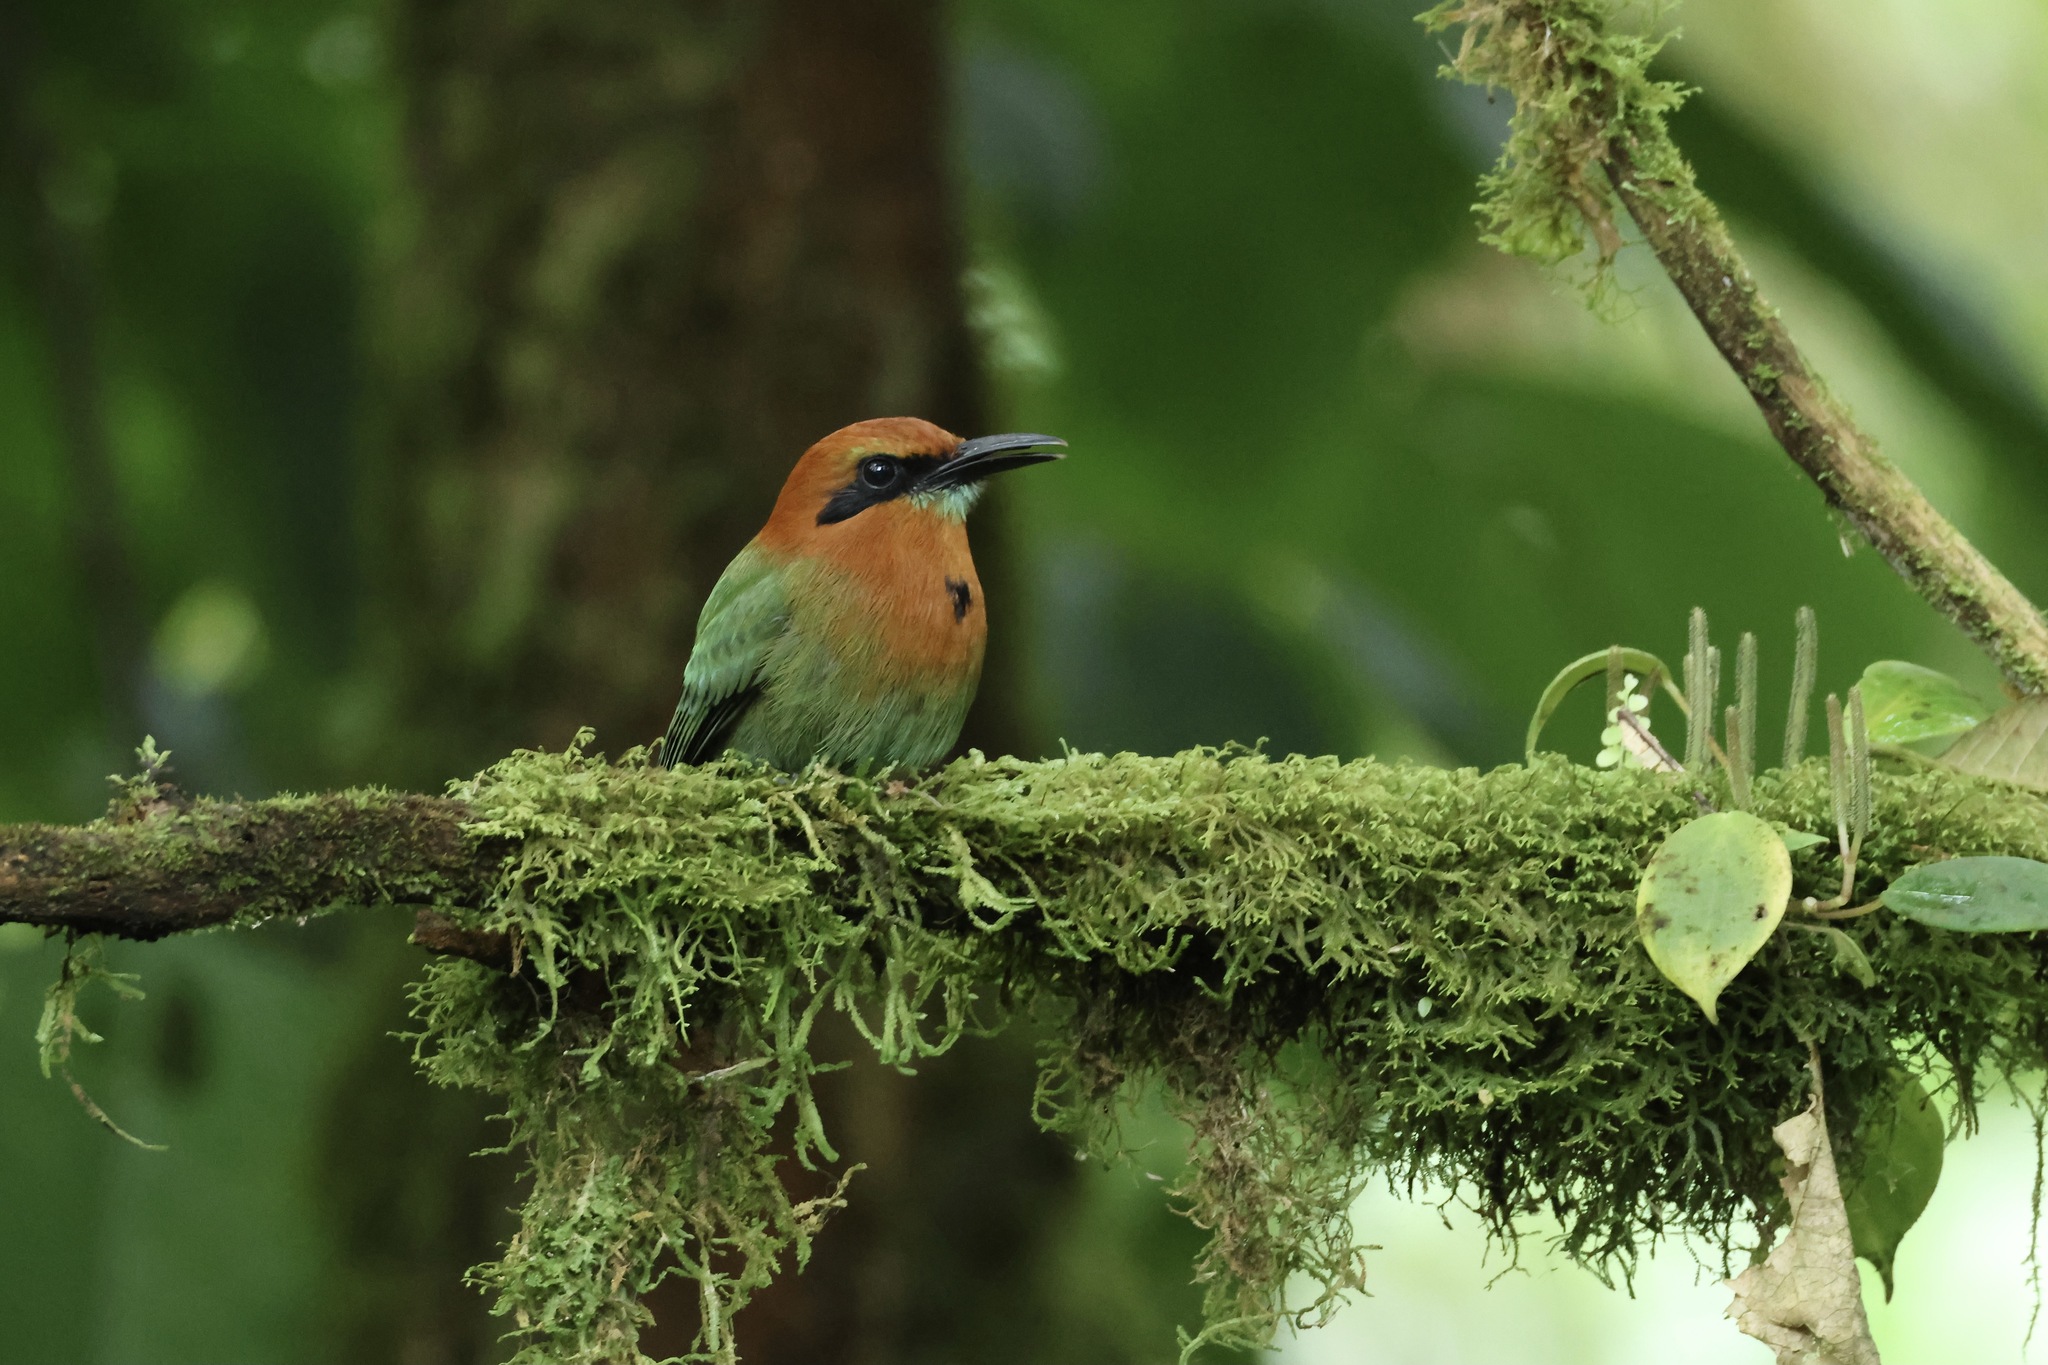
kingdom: Animalia
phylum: Chordata
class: Aves
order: Coraciiformes
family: Momotidae
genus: Electron
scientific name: Electron platyrhynchum
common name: Broad-billed motmot
